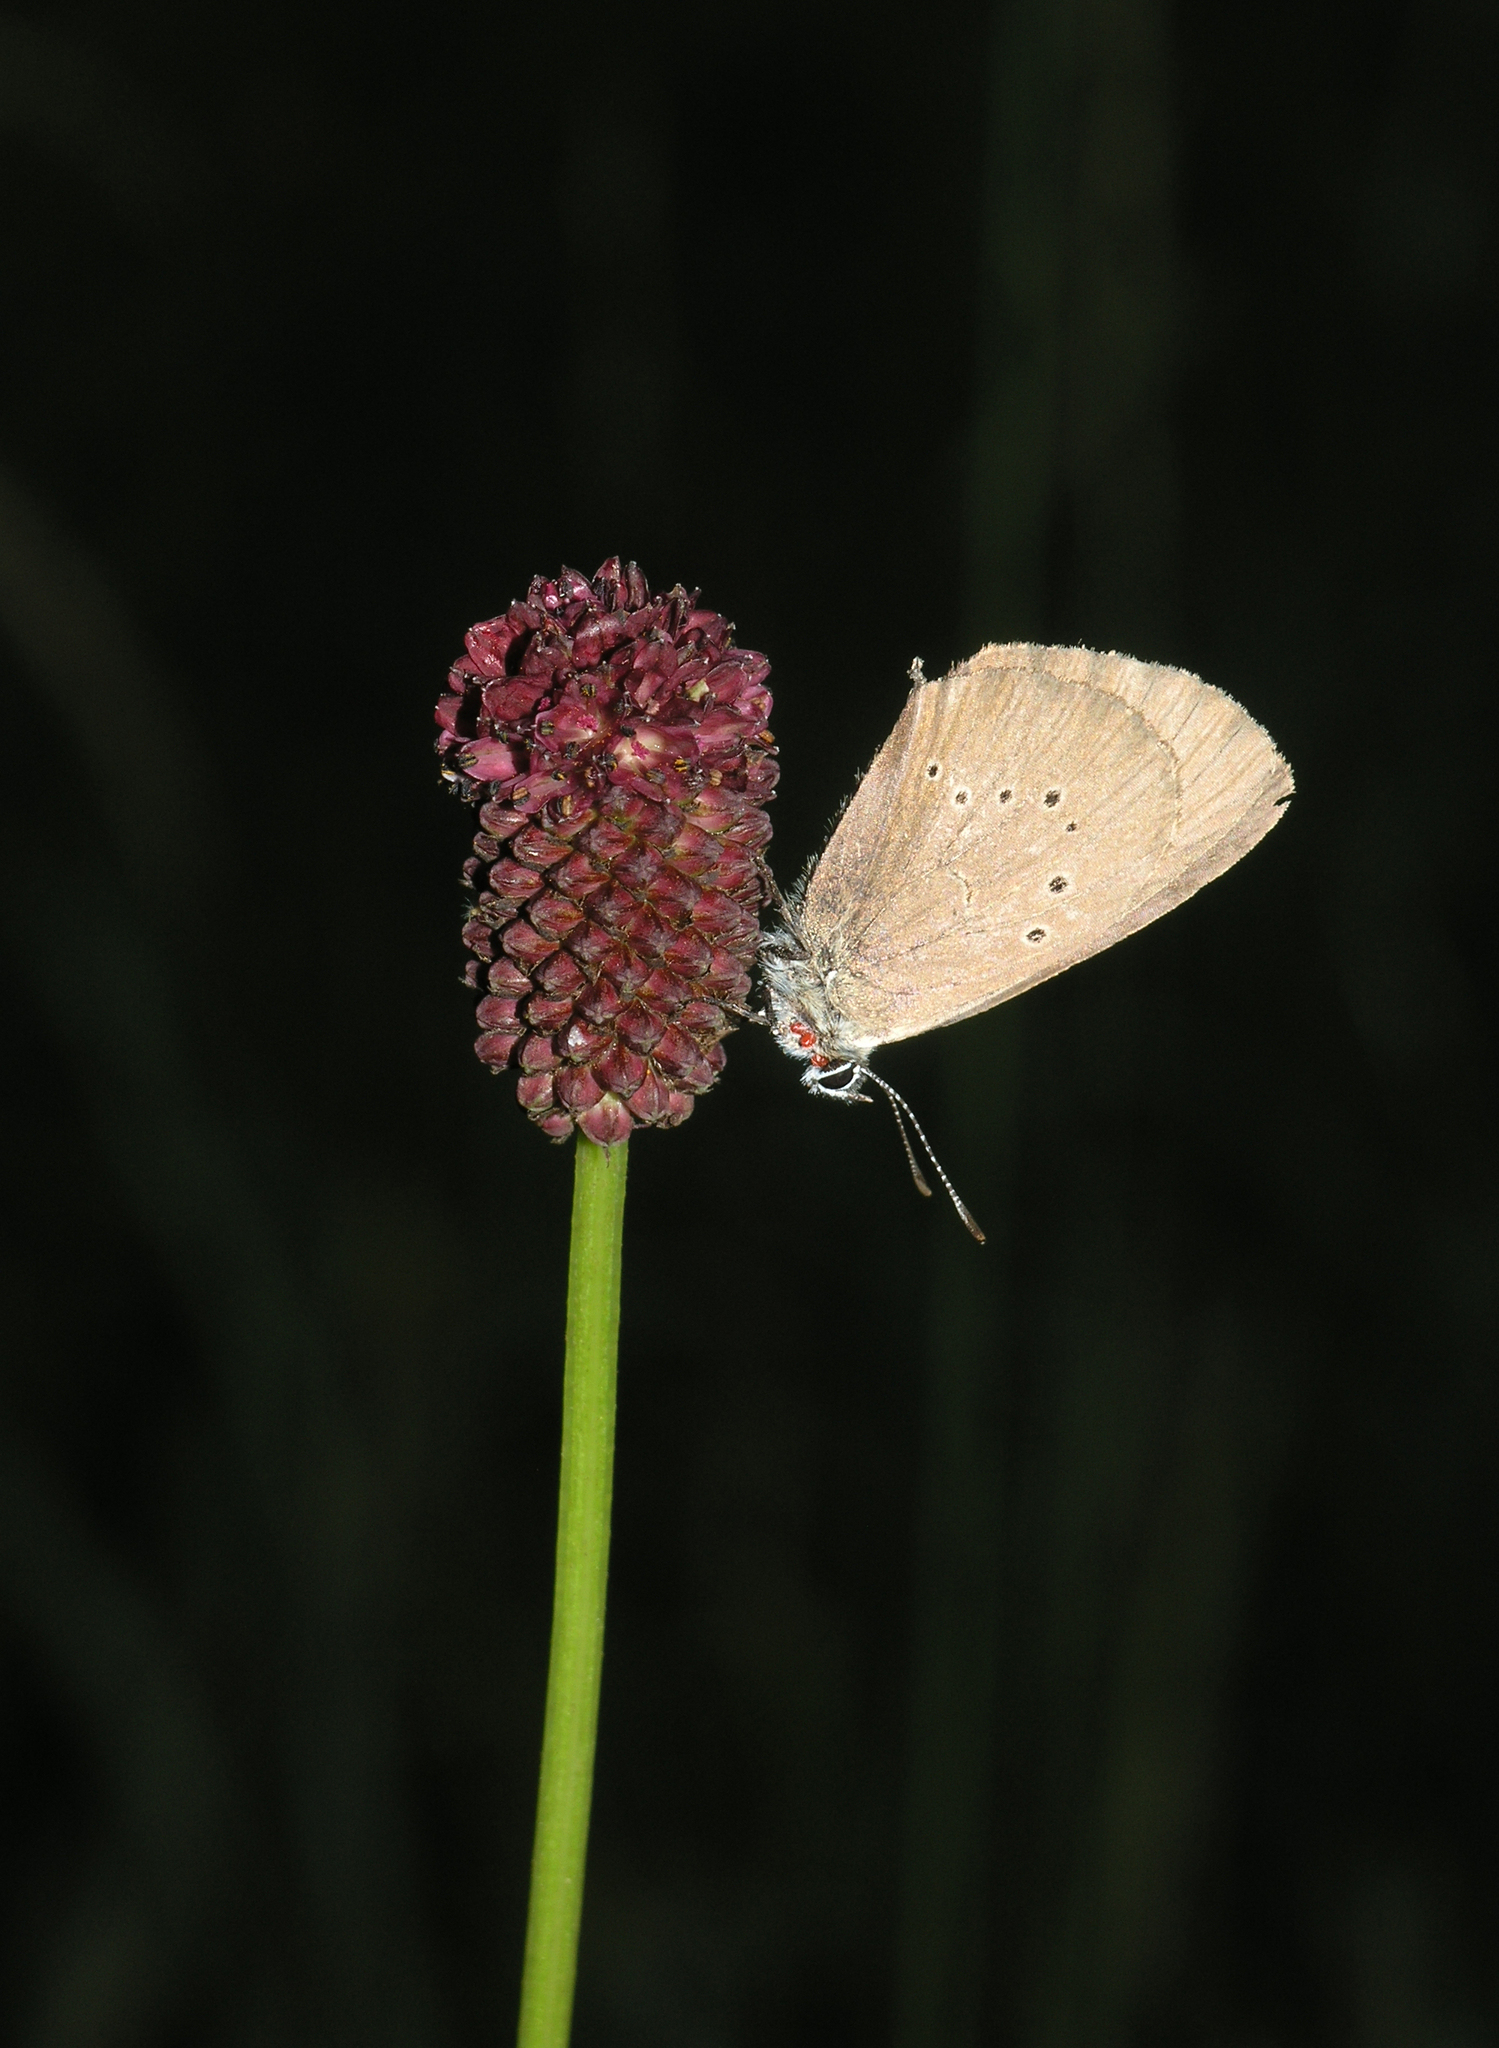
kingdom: Animalia
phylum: Arthropoda
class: Insecta
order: Lepidoptera
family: Lycaenidae
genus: Maculinea
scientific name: Maculinea nausithous
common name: Dusky large blue
